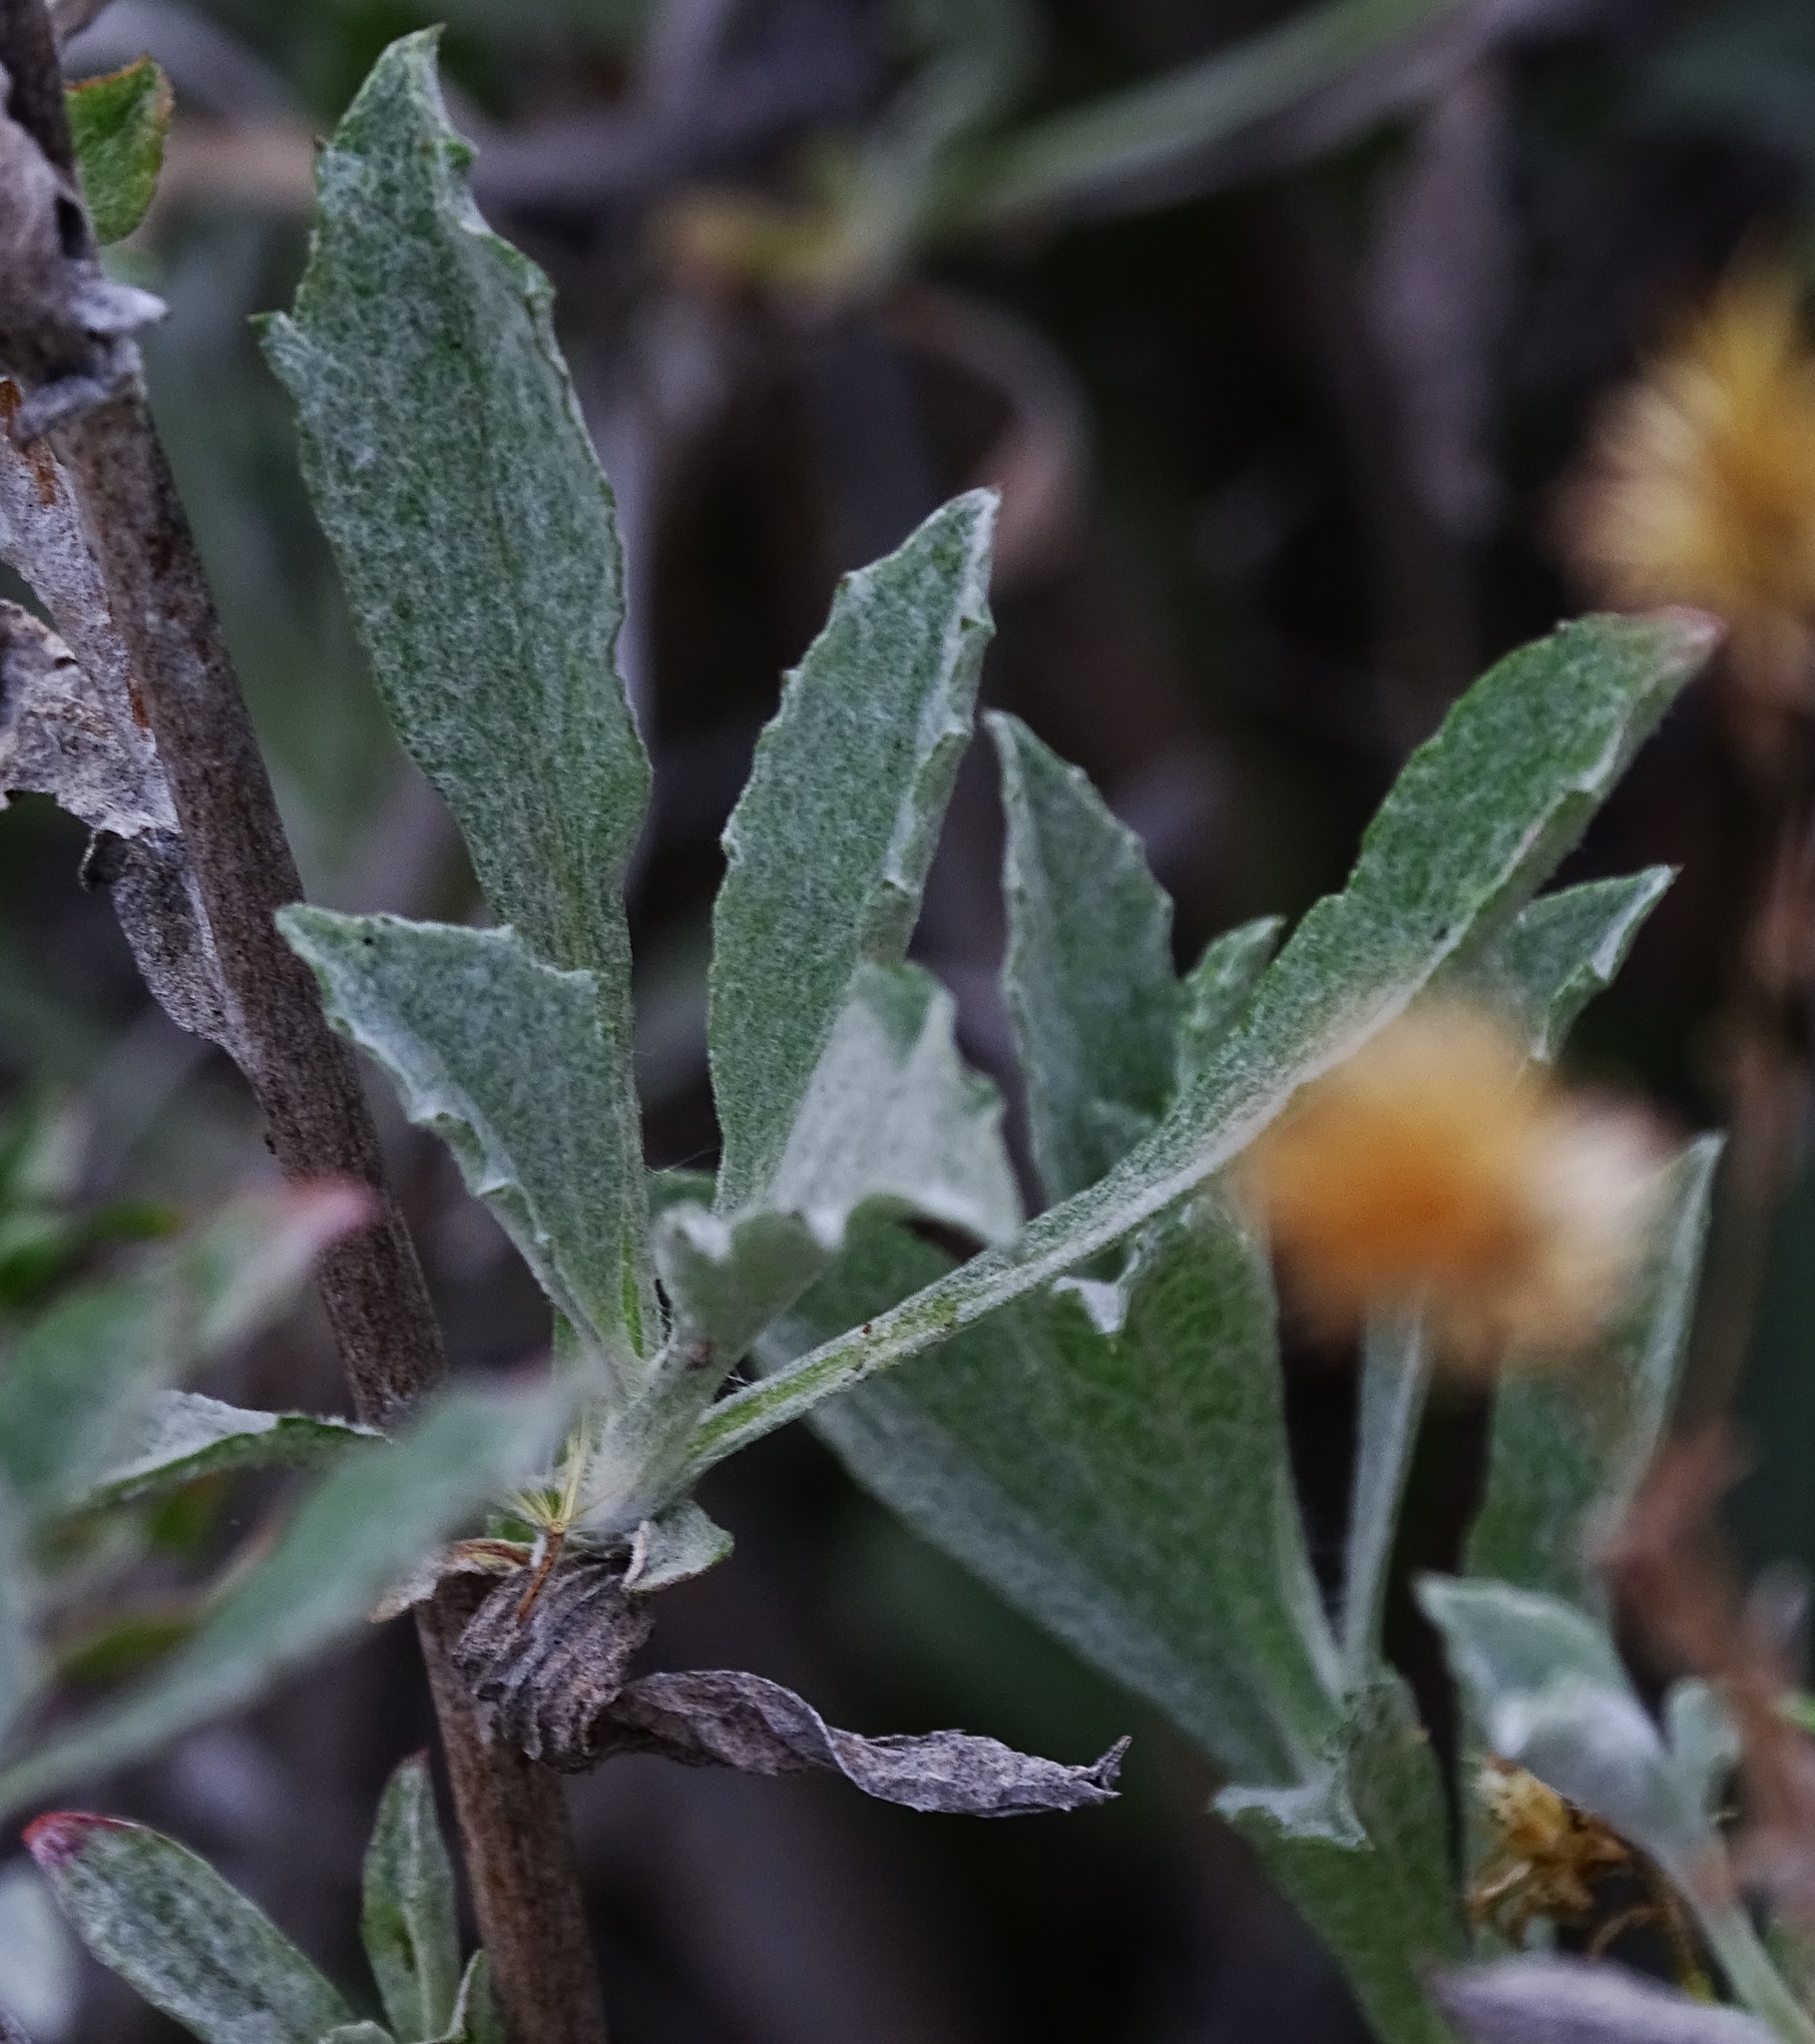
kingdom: Plantae
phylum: Tracheophyta
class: Magnoliopsida
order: Asterales
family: Asteraceae
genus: Corethrogyne
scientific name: Corethrogyne filaginifolia
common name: Sand-aster
